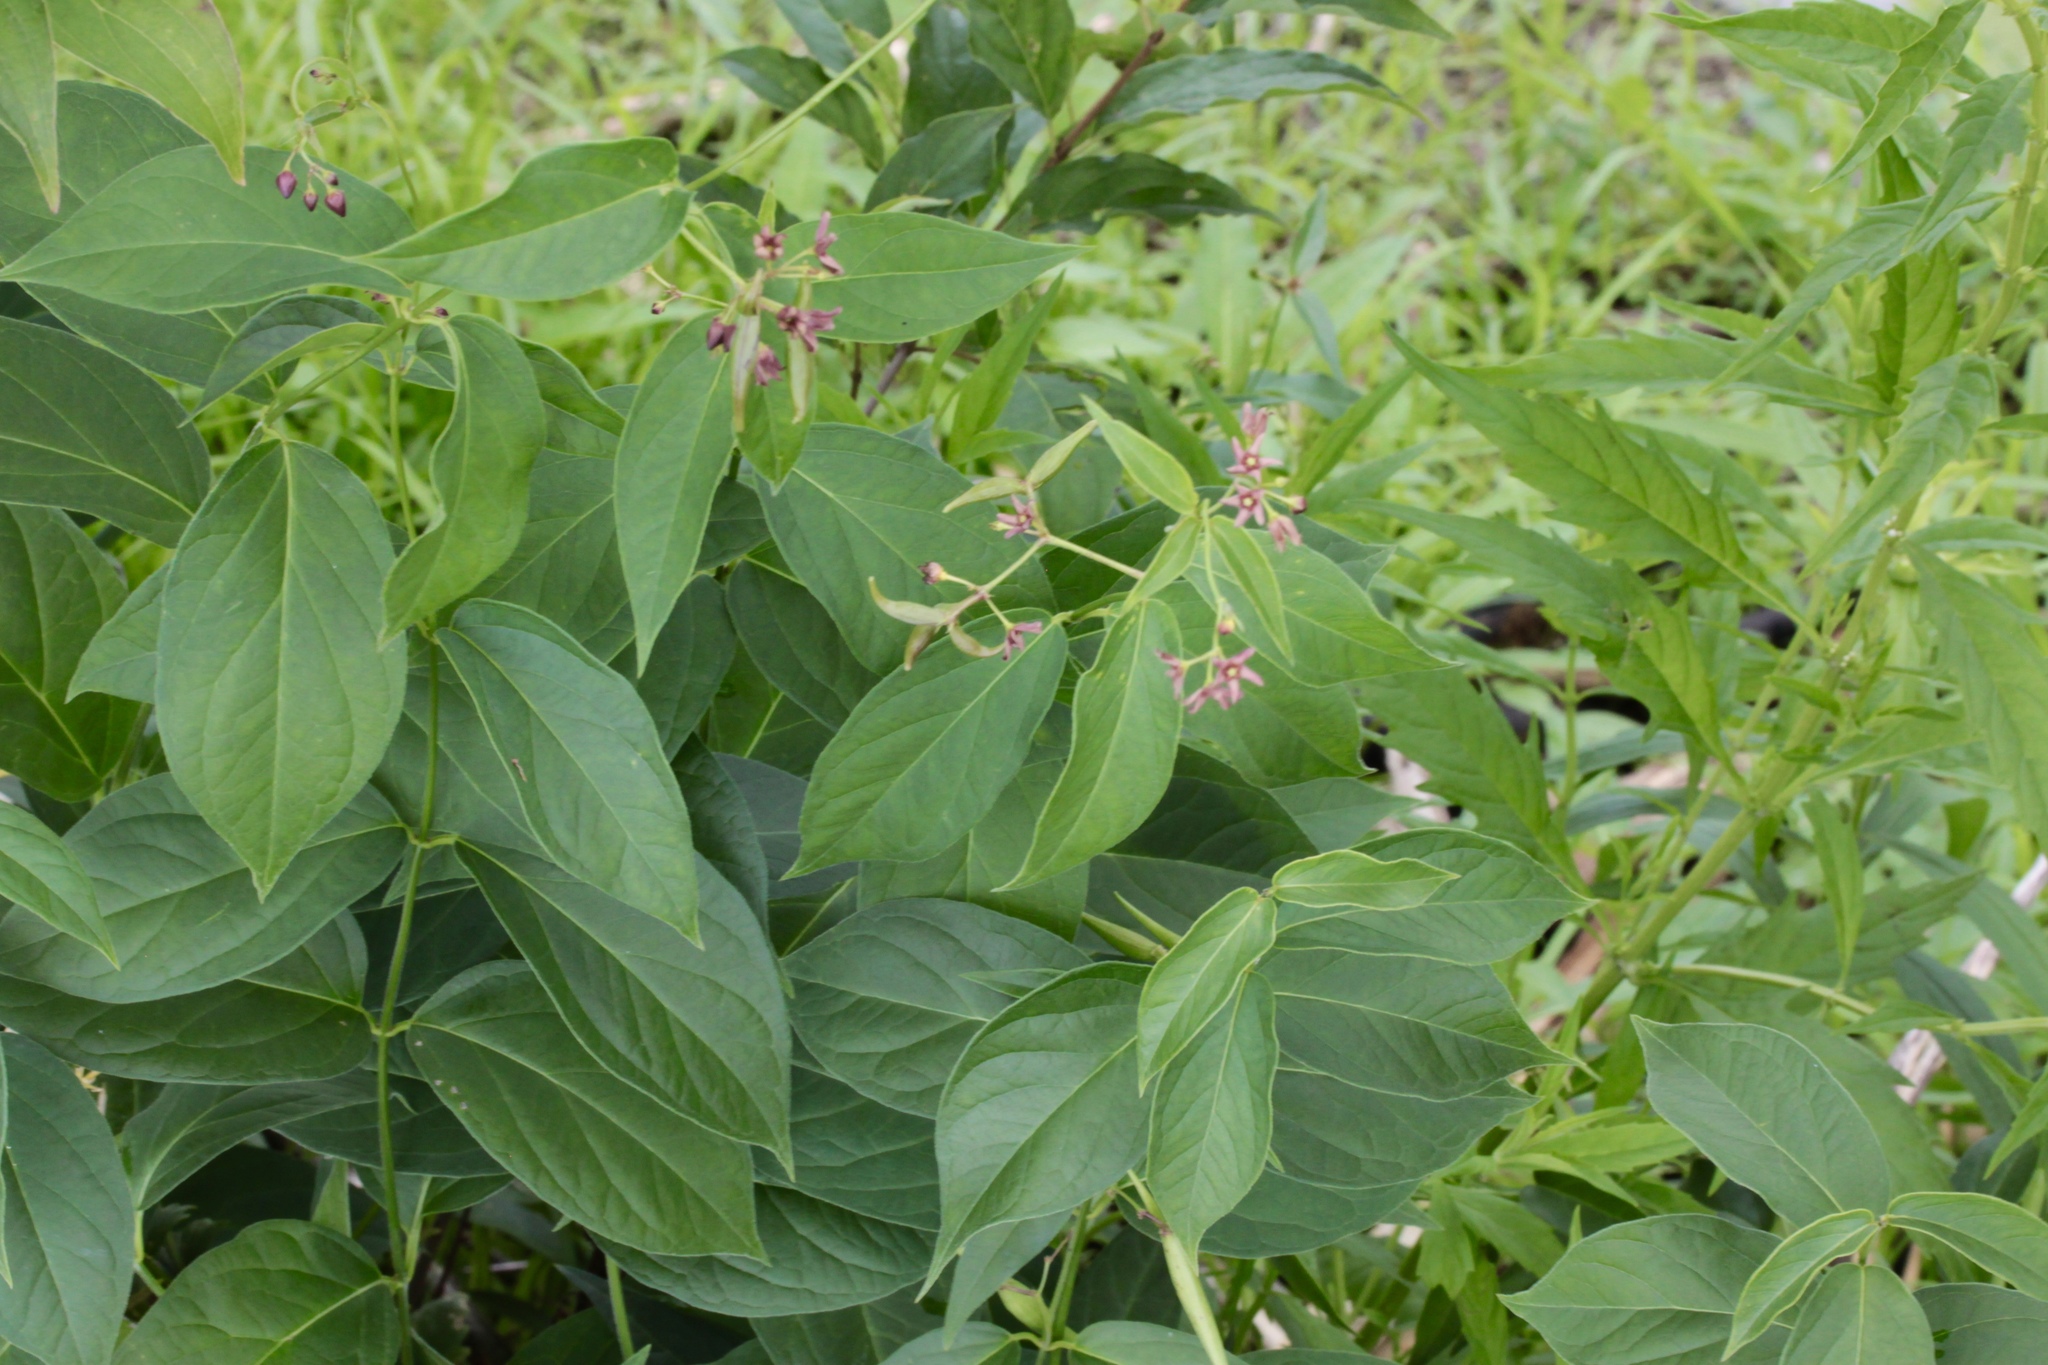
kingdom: Plantae
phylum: Tracheophyta
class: Magnoliopsida
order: Gentianales
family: Apocynaceae
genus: Vincetoxicum
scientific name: Vincetoxicum rossicum
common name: Dog-strangling vine
